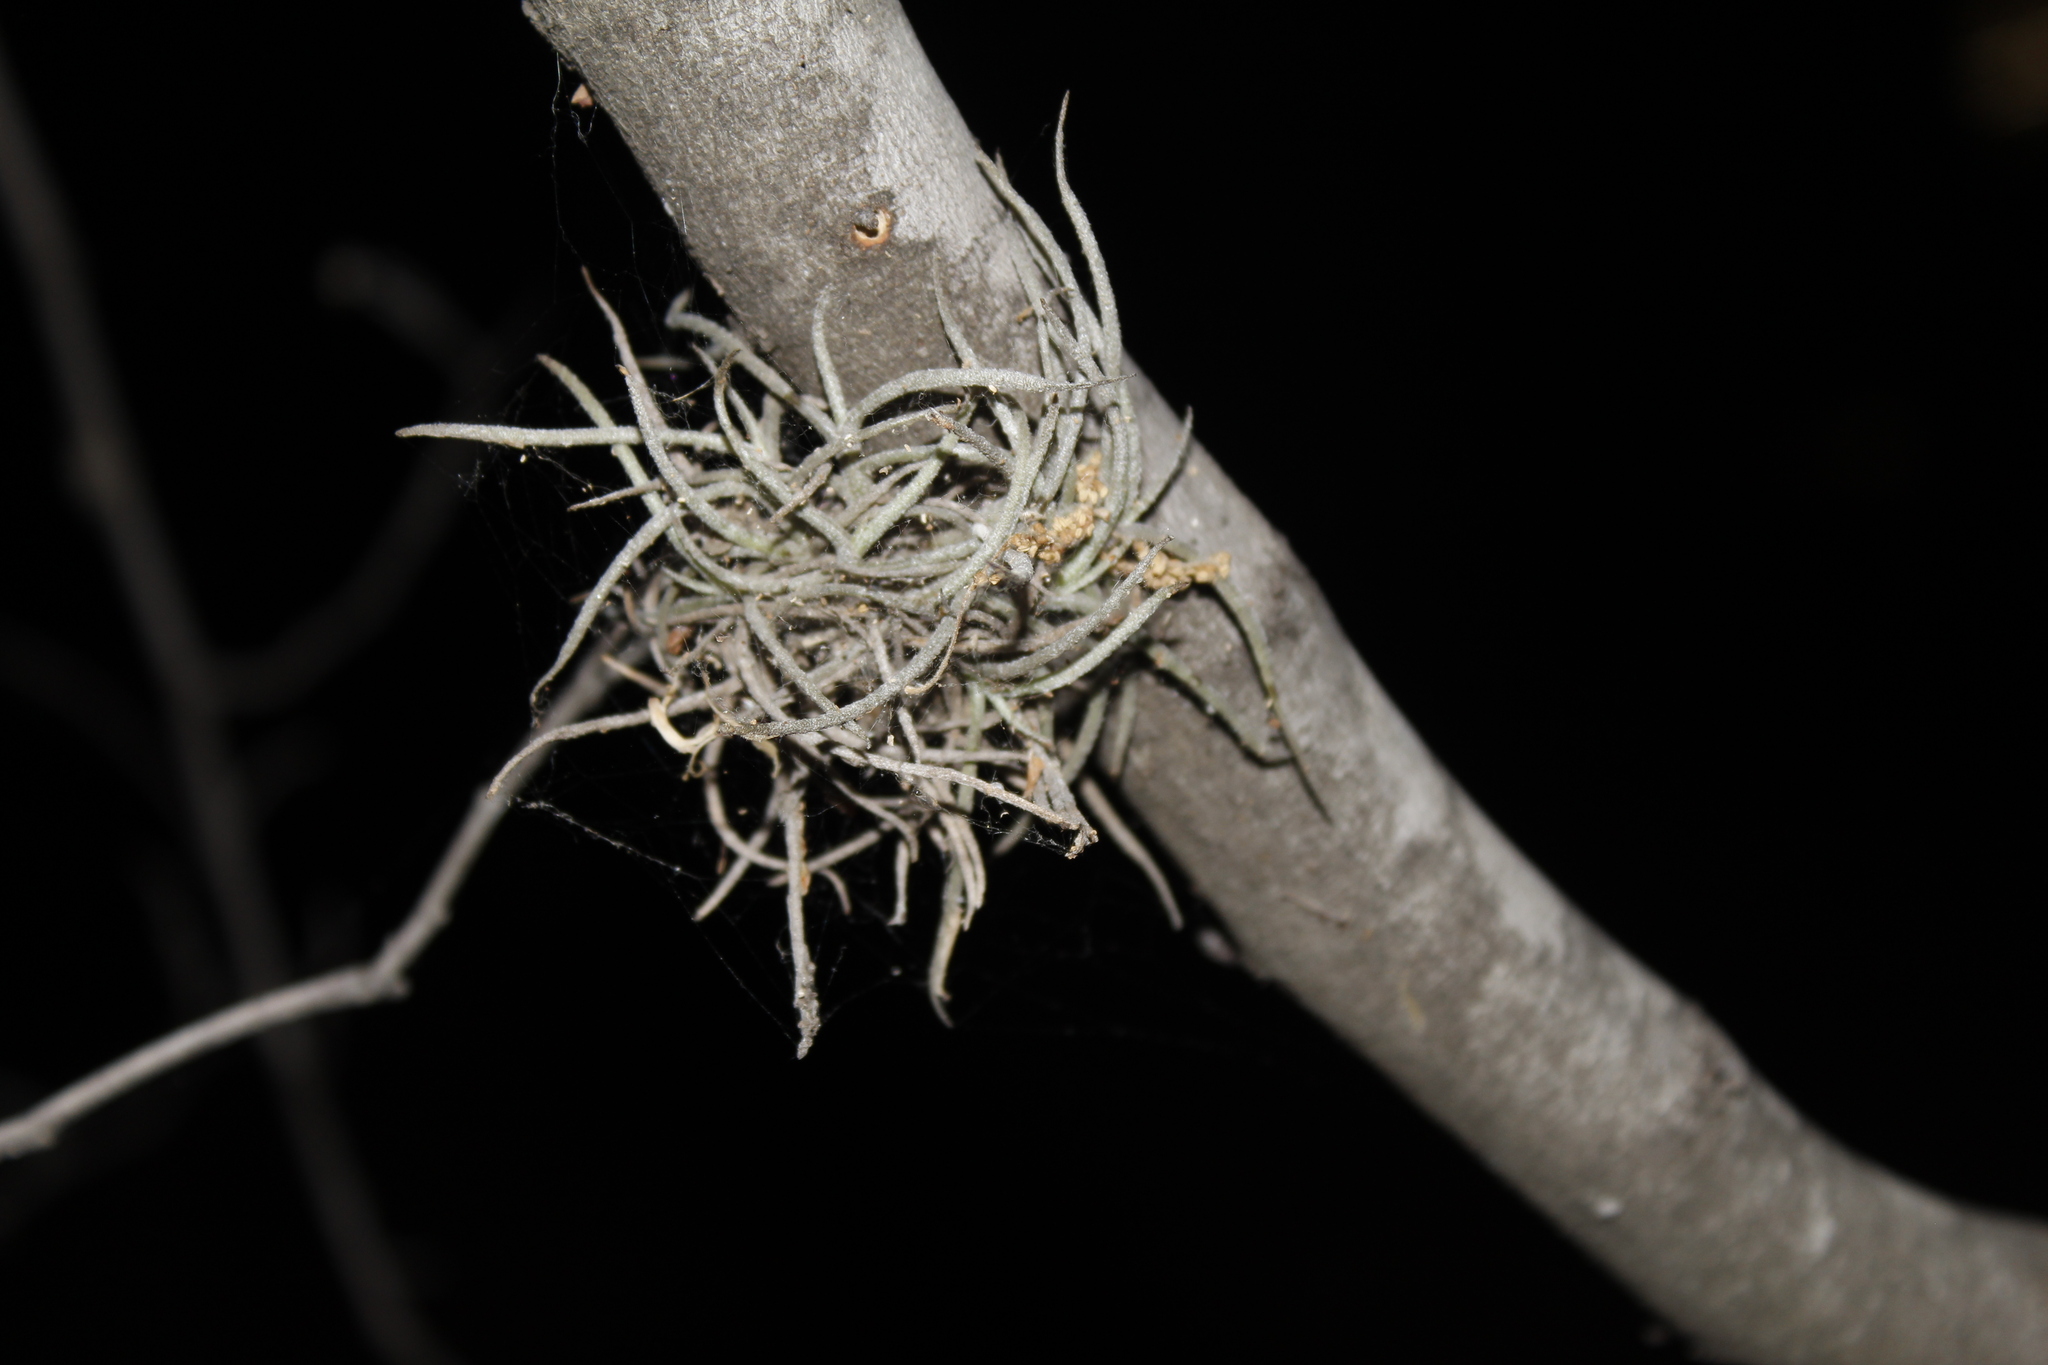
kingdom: Plantae
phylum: Tracheophyta
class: Liliopsida
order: Poales
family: Bromeliaceae
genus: Tillandsia
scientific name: Tillandsia recurvata
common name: Small ballmoss
